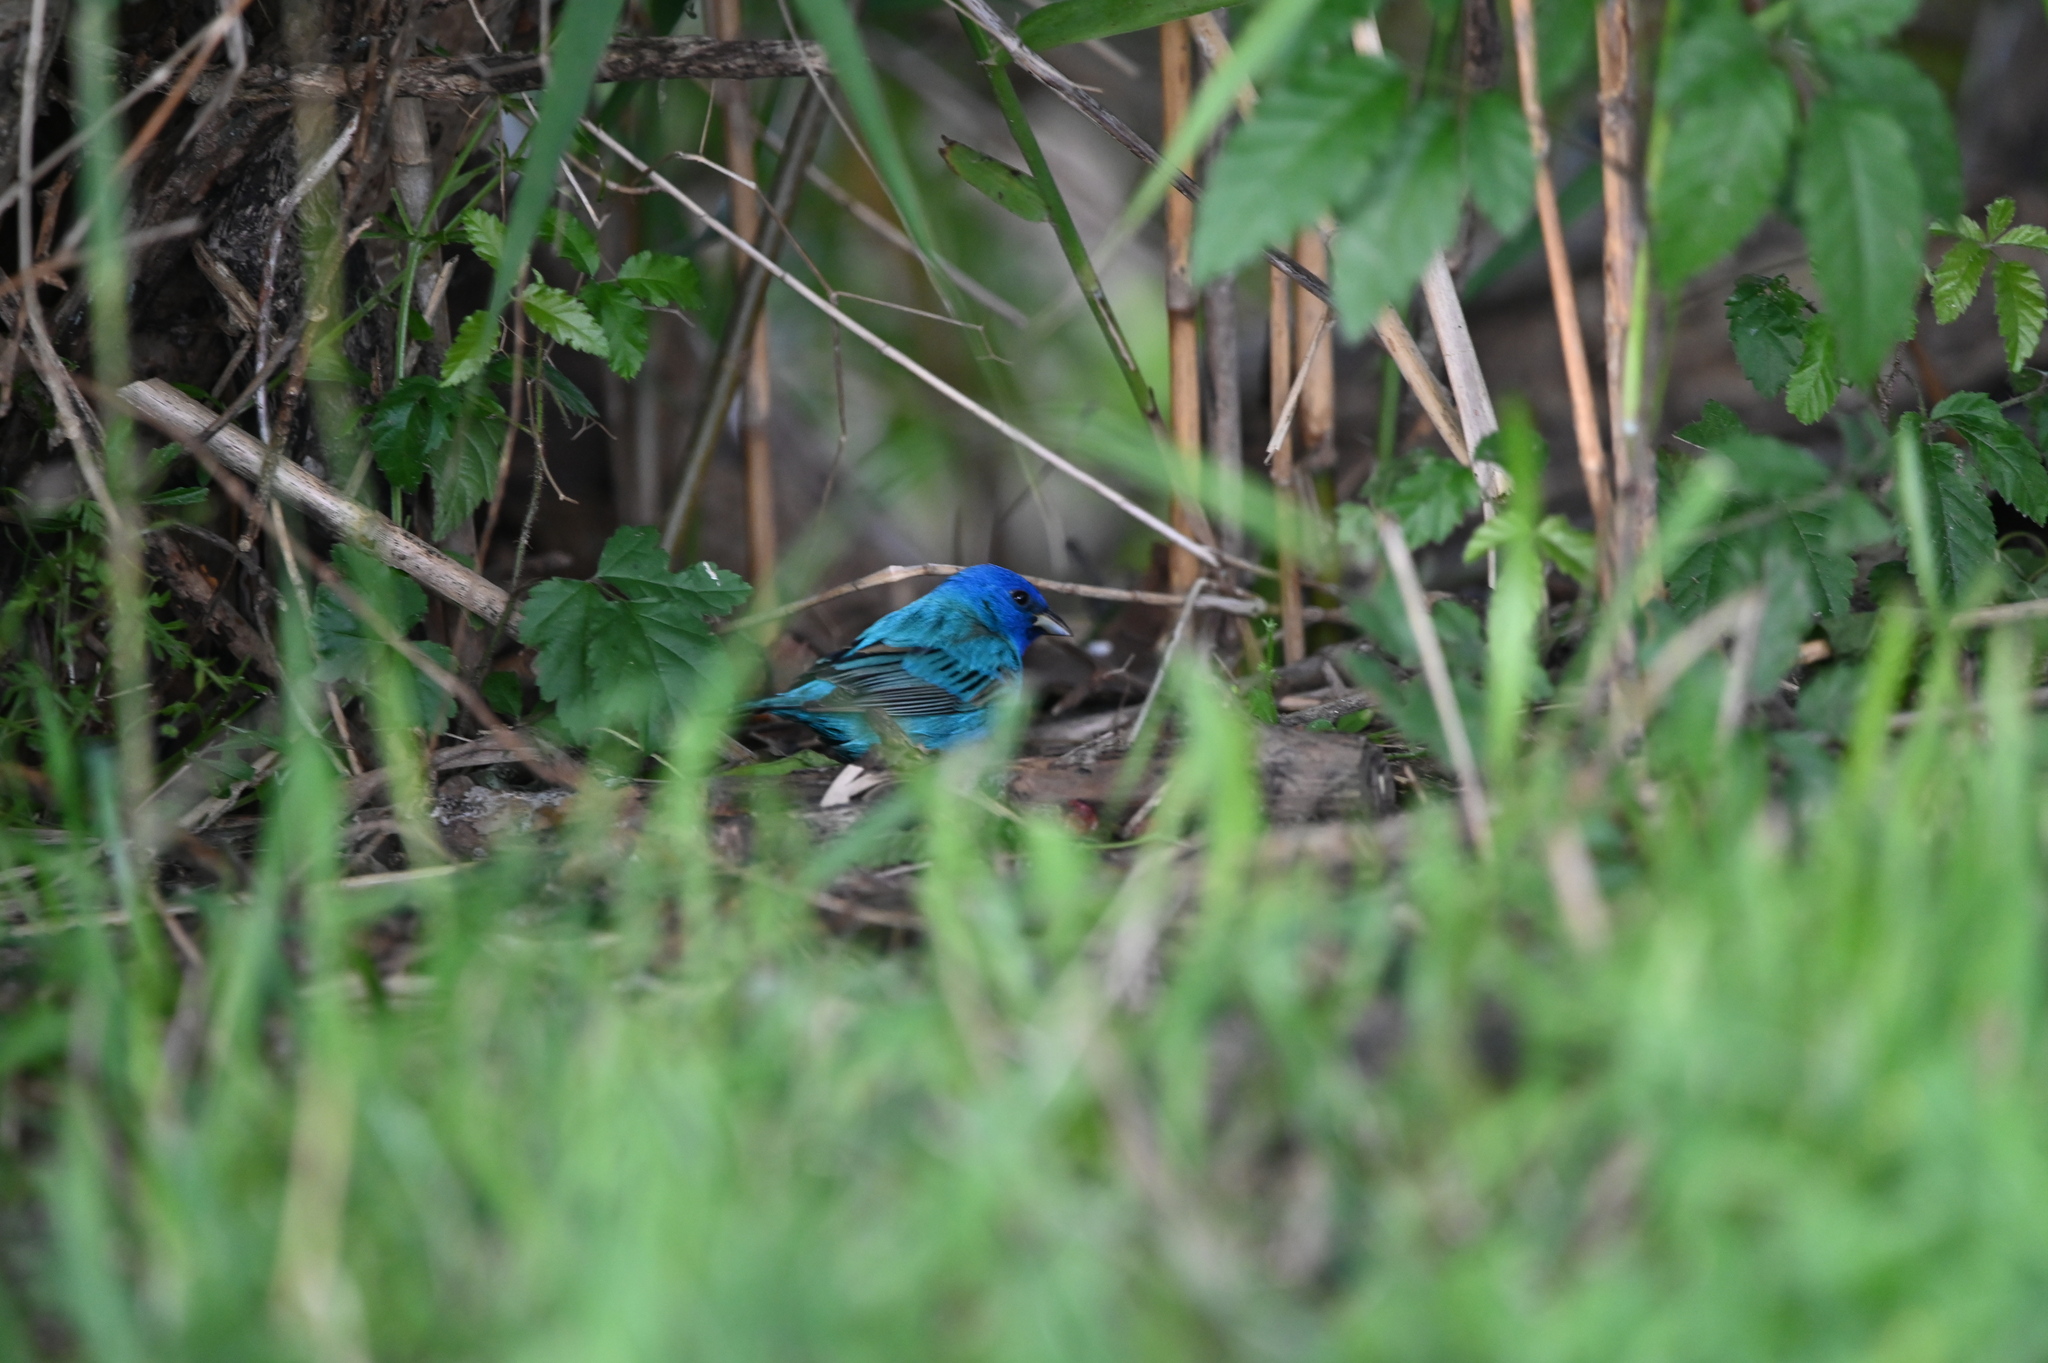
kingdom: Animalia
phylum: Chordata
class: Aves
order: Passeriformes
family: Cardinalidae
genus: Passerina
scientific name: Passerina cyanea
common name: Indigo bunting
